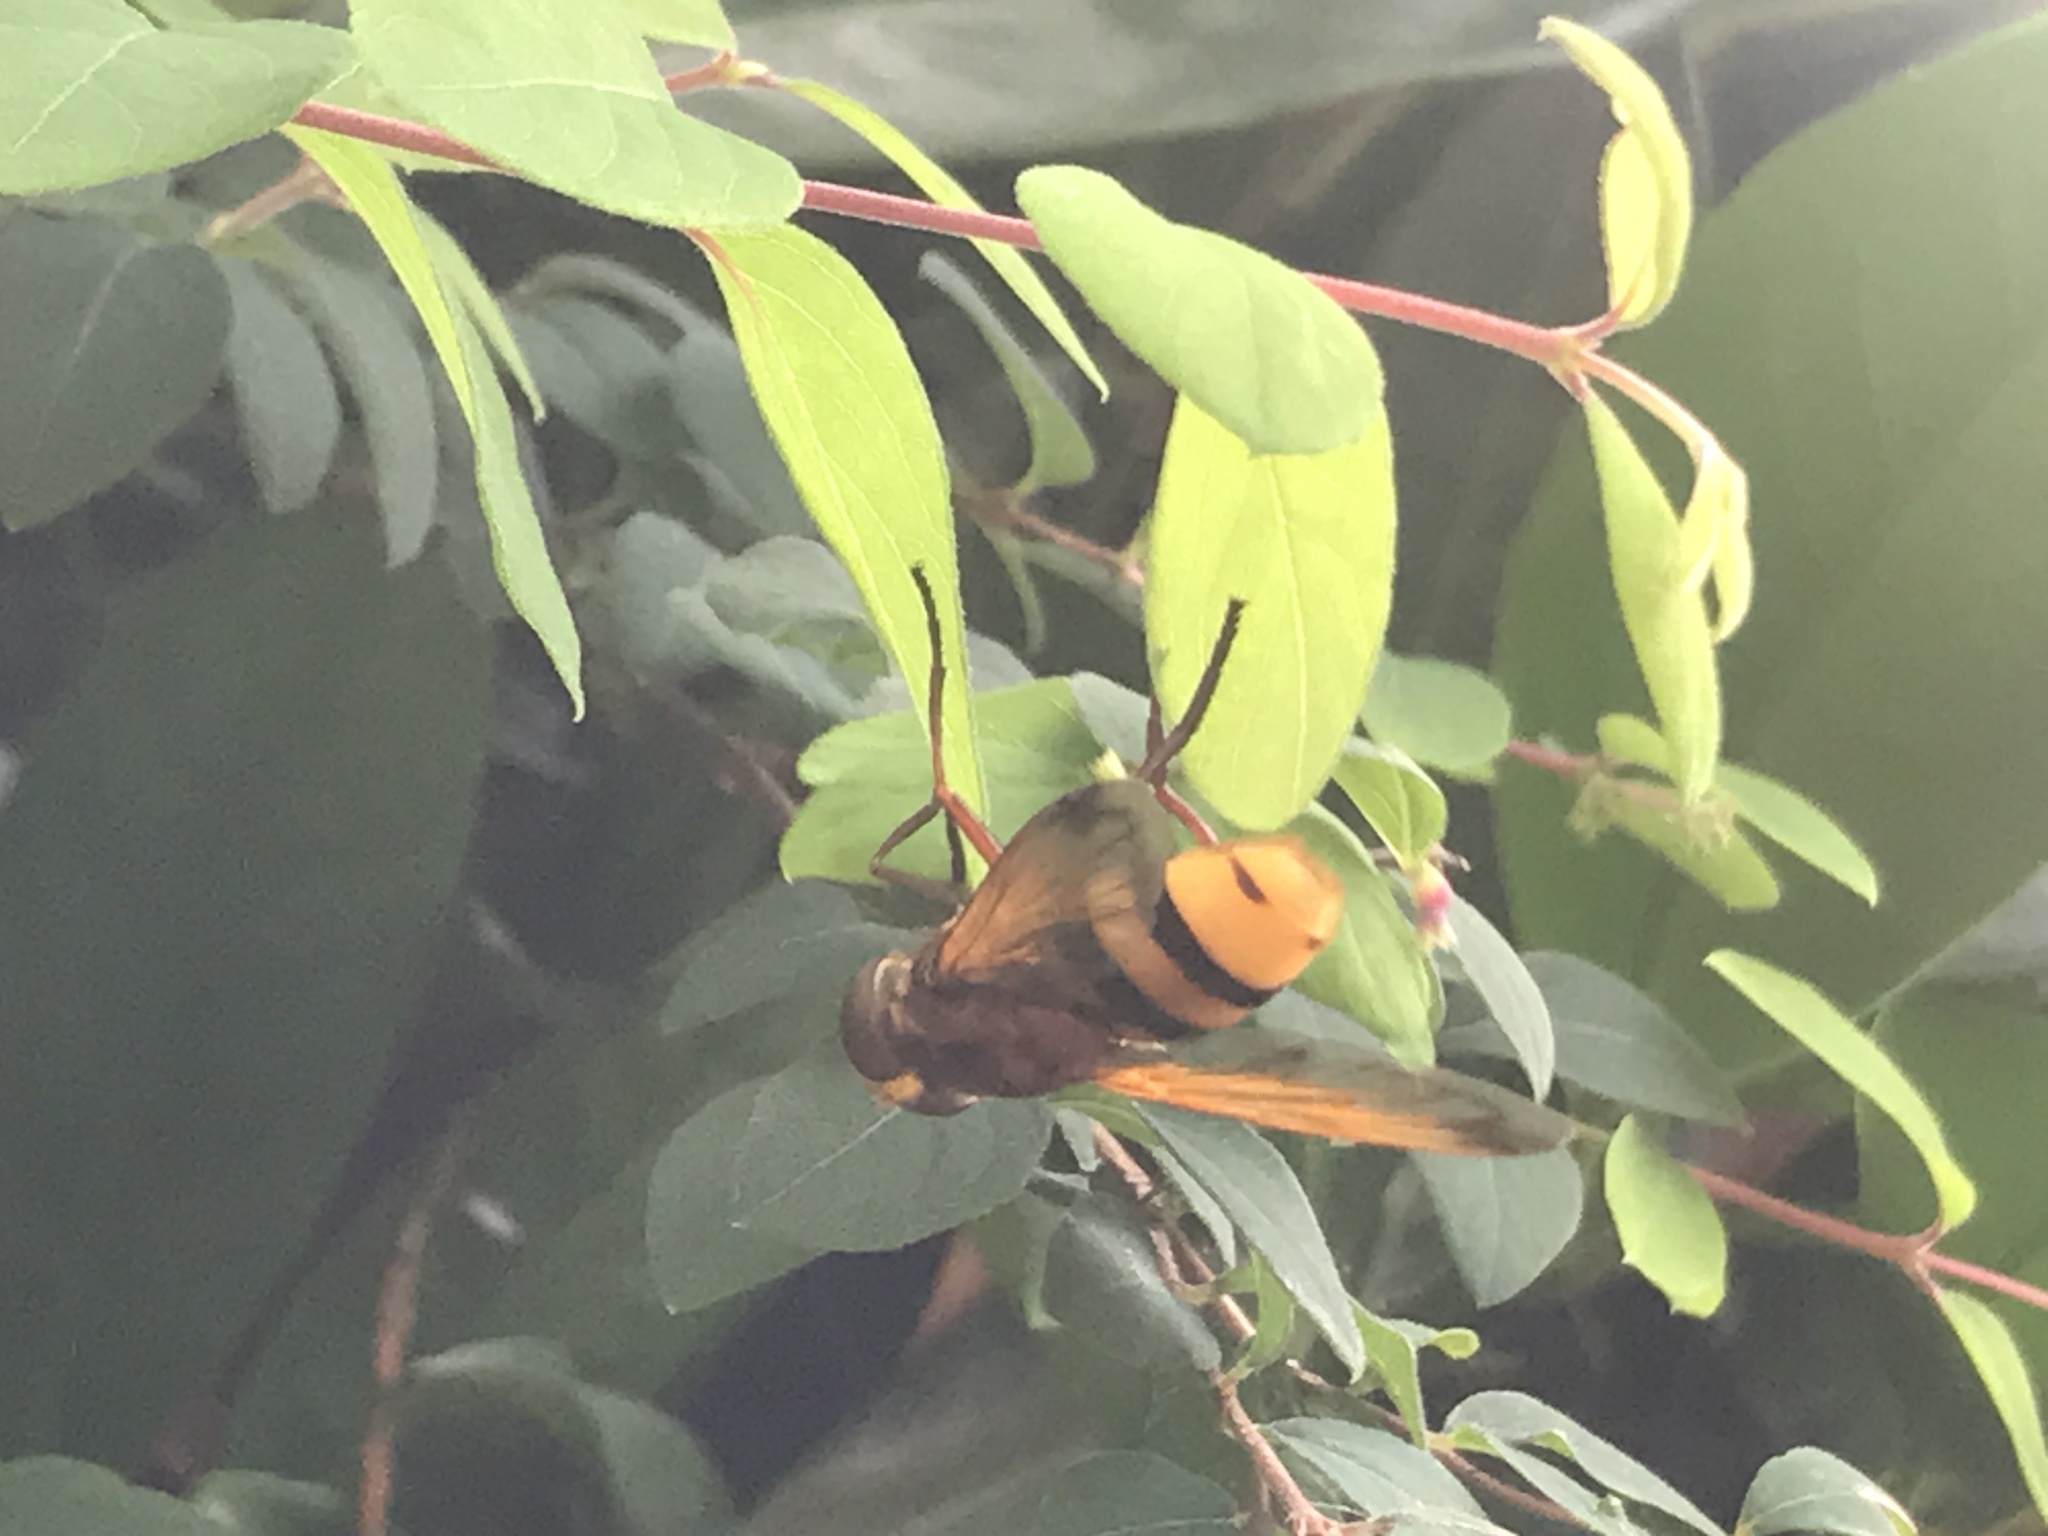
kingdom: Animalia
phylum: Arthropoda
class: Insecta
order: Diptera
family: Syrphidae
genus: Volucella
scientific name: Volucella zonaria
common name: Hornet hoverfly
